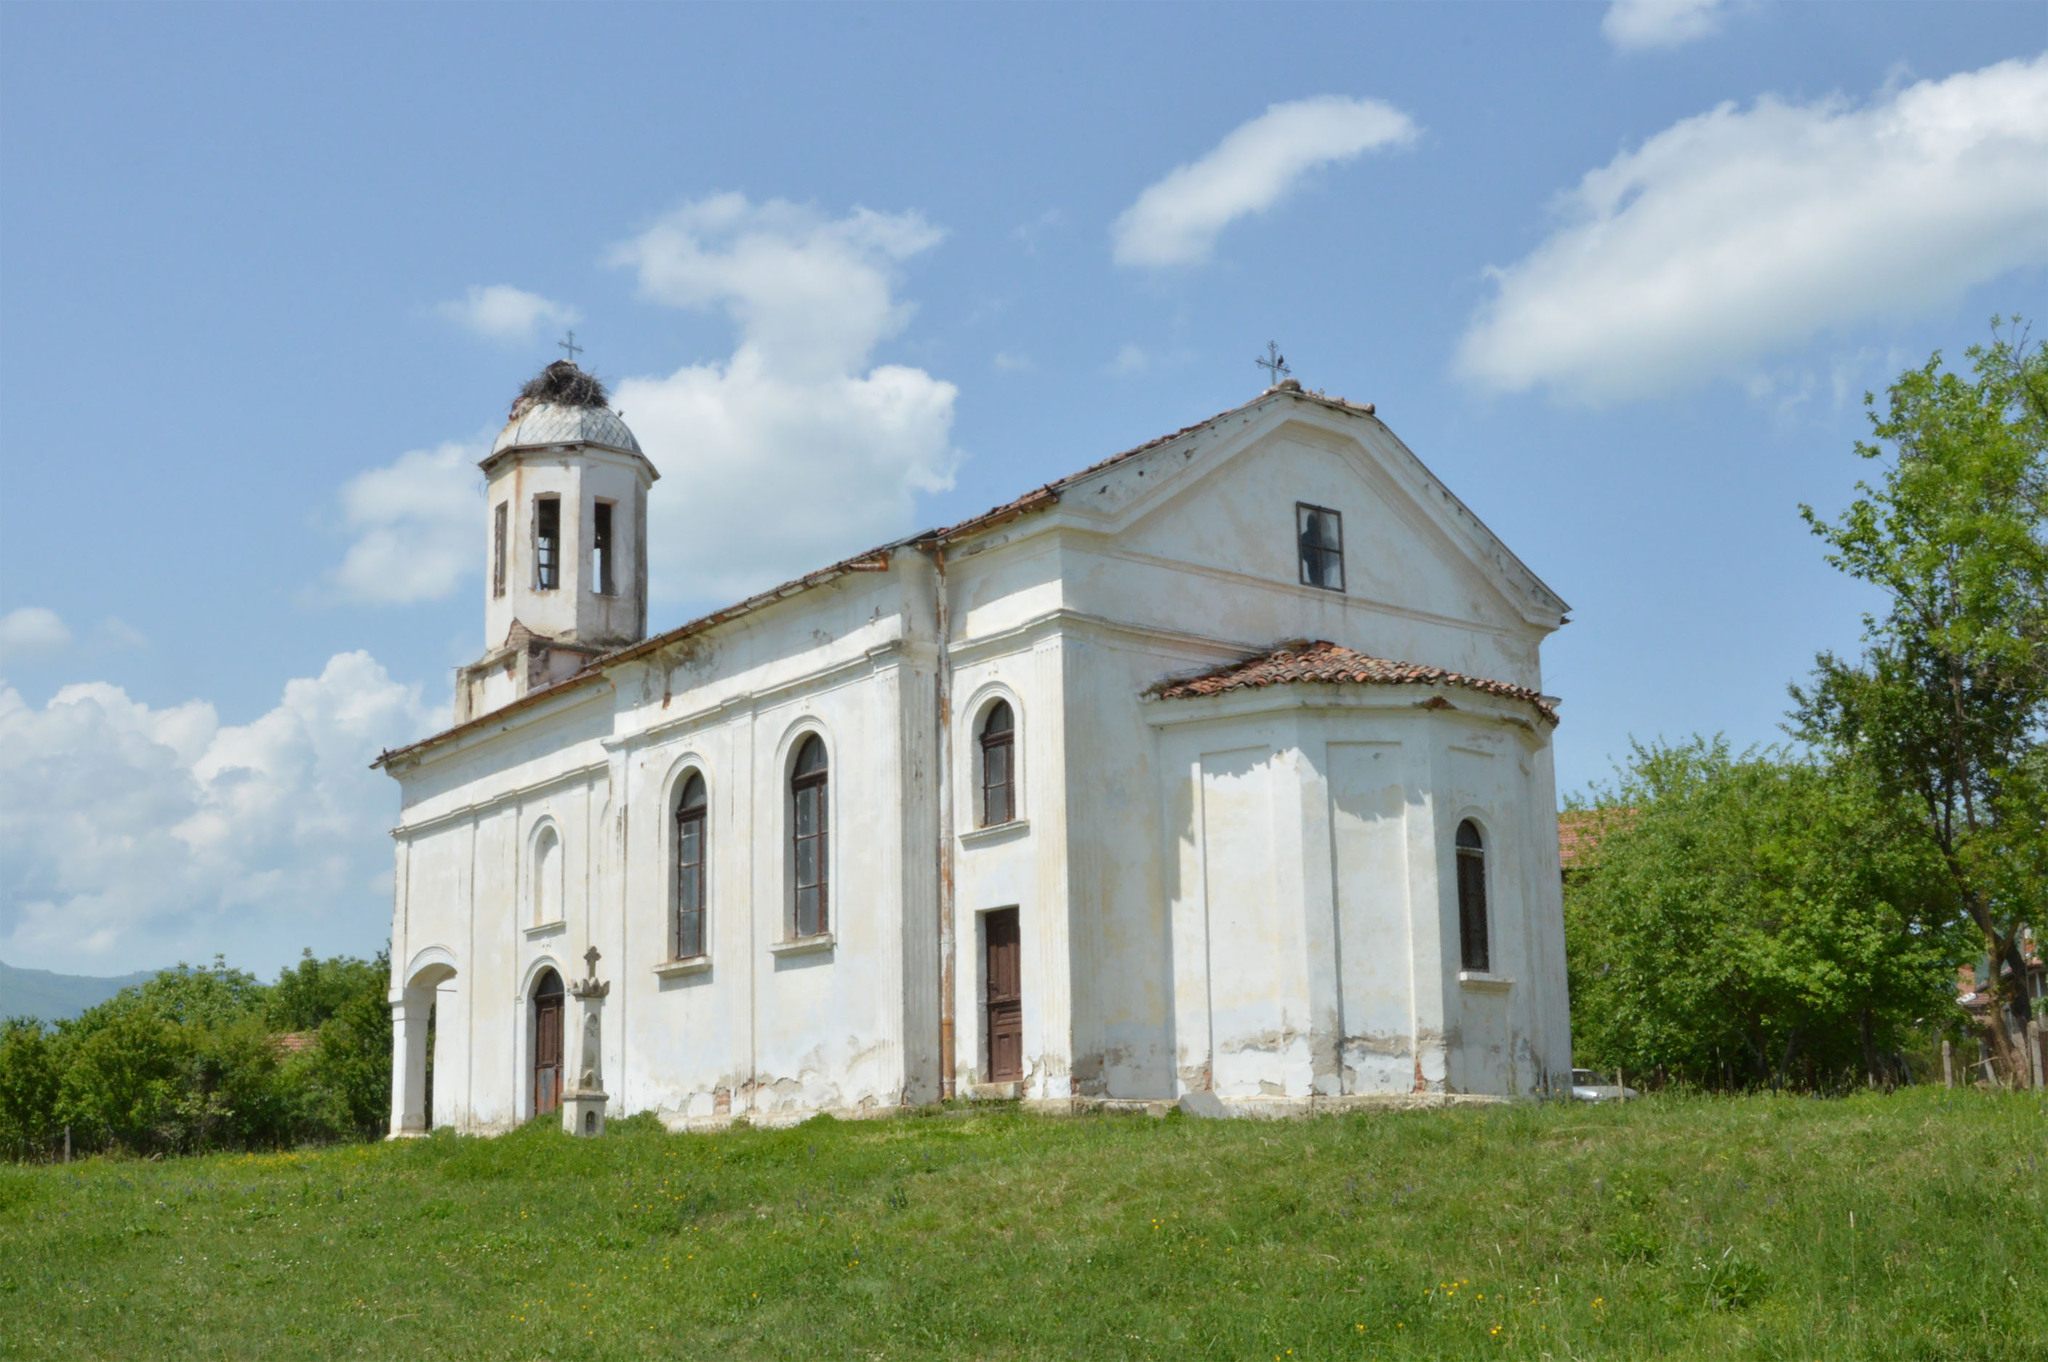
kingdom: Animalia
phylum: Chordata
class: Aves
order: Ciconiiformes
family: Ciconiidae
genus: Ciconia
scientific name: Ciconia ciconia
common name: White stork
